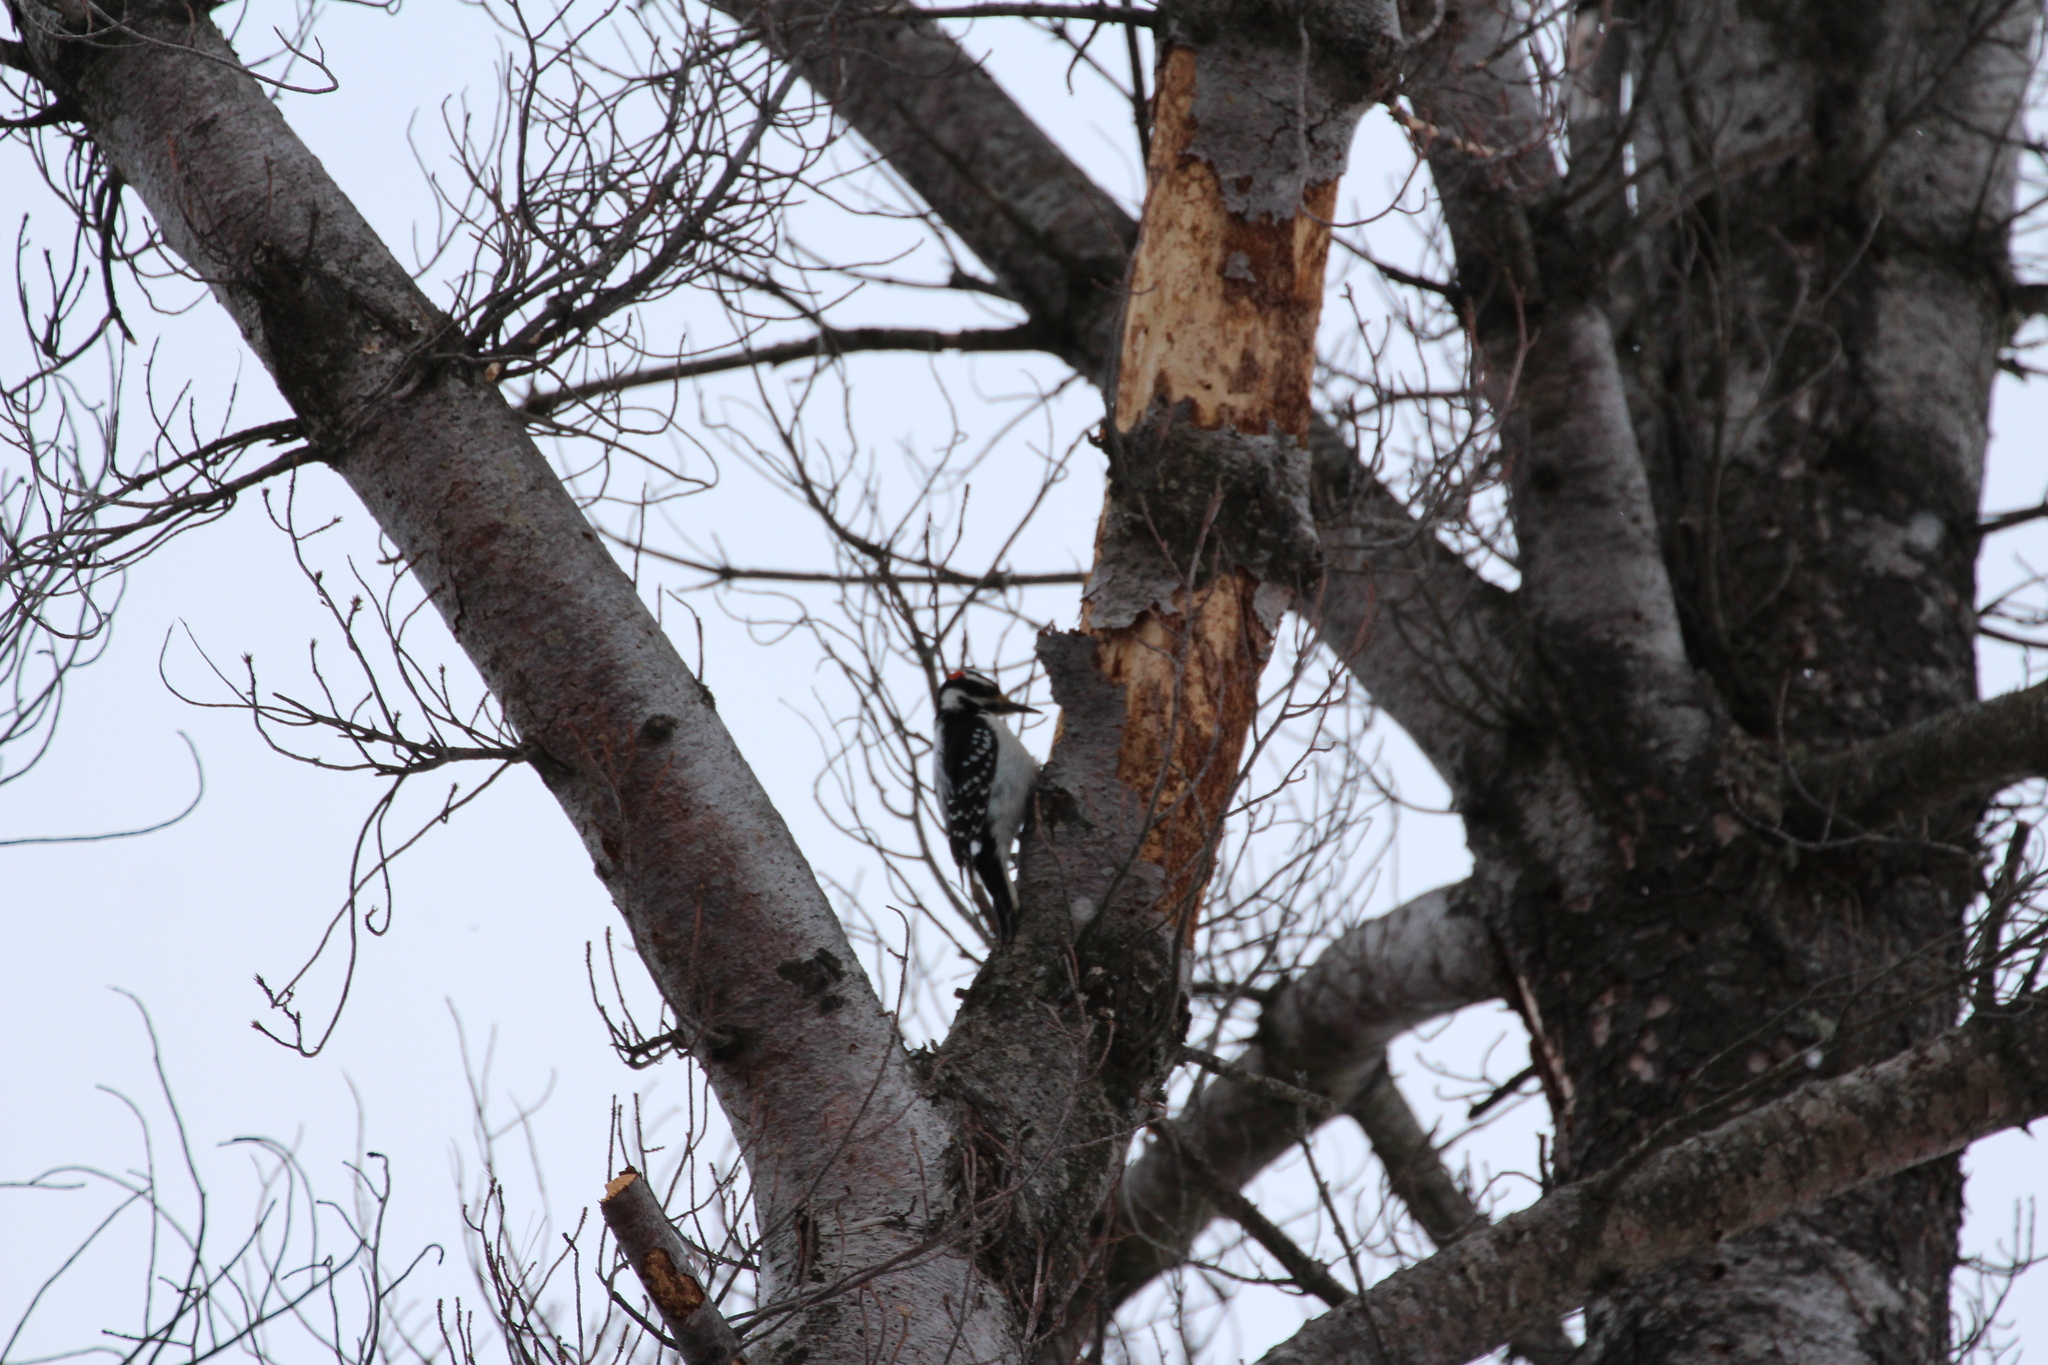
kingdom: Animalia
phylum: Chordata
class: Aves
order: Piciformes
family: Picidae
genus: Leuconotopicus
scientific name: Leuconotopicus villosus
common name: Hairy woodpecker
